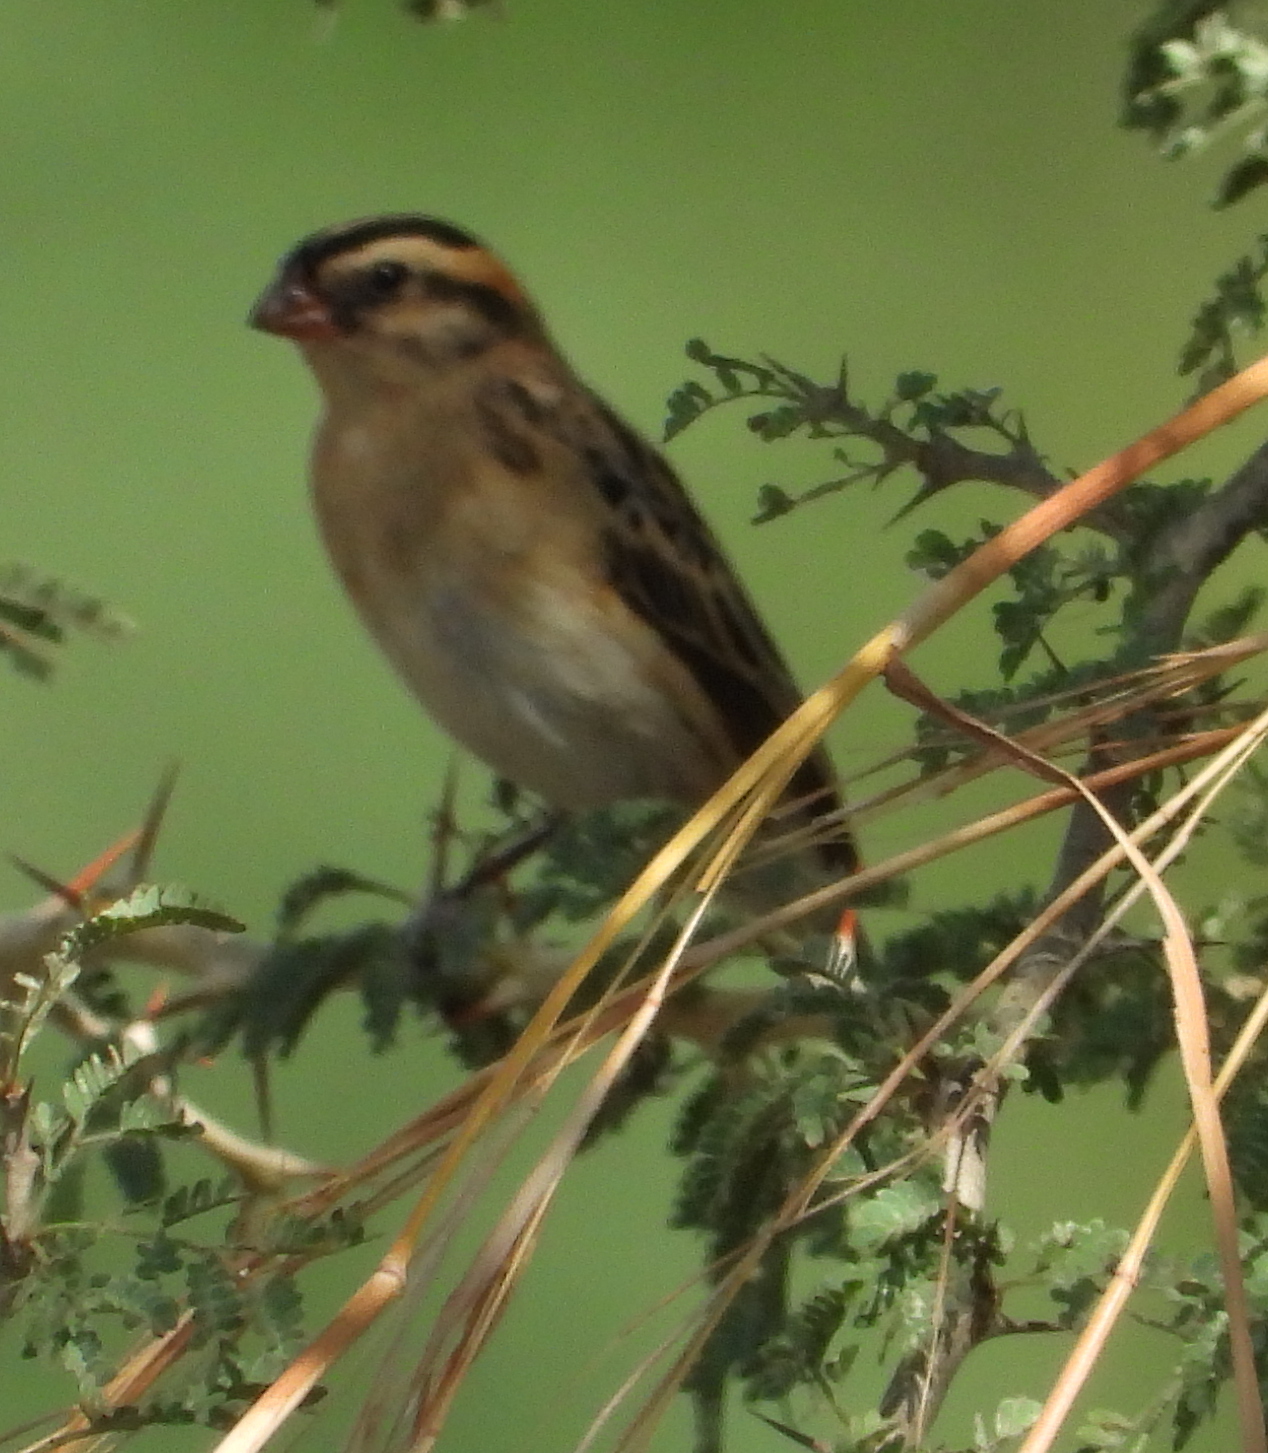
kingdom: Animalia
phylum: Chordata
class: Aves
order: Passeriformes
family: Viduidae
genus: Vidua
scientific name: Vidua macroura
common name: Pin-tailed whydah
